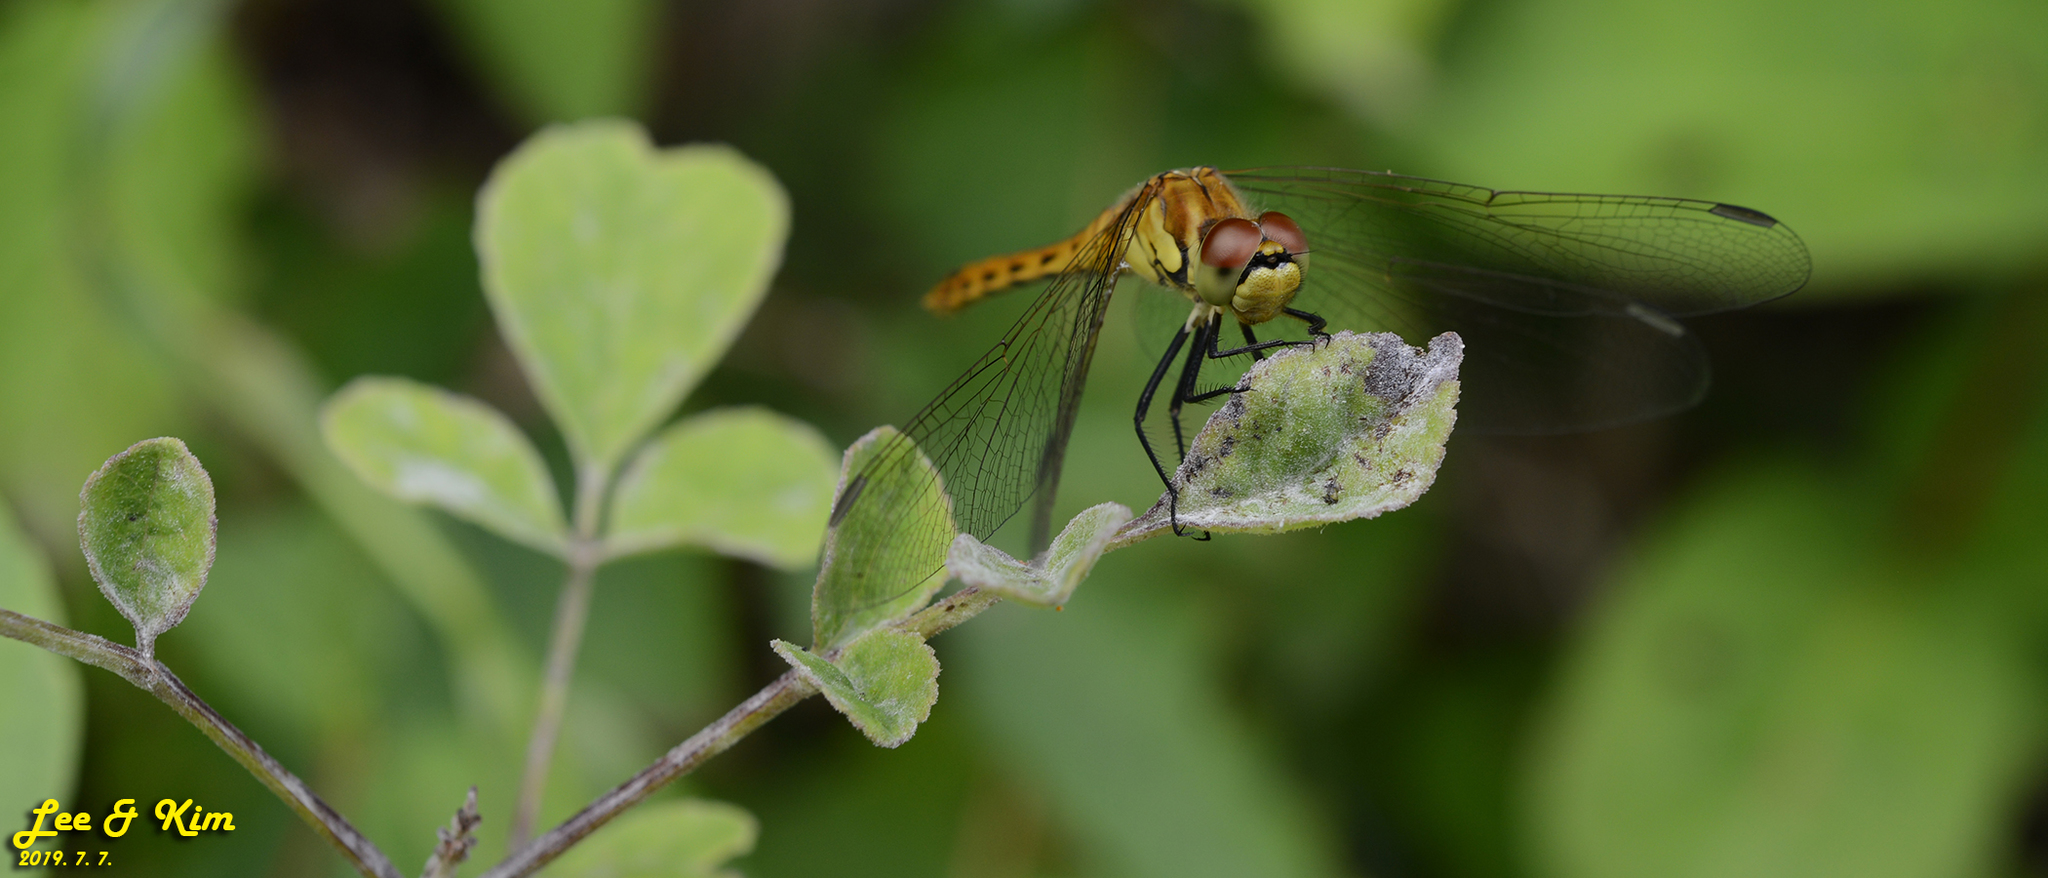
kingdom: Animalia
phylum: Arthropoda
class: Insecta
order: Odonata
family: Libellulidae
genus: Sympetrum
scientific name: Sympetrum depressiusculum
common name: Spotted darter
